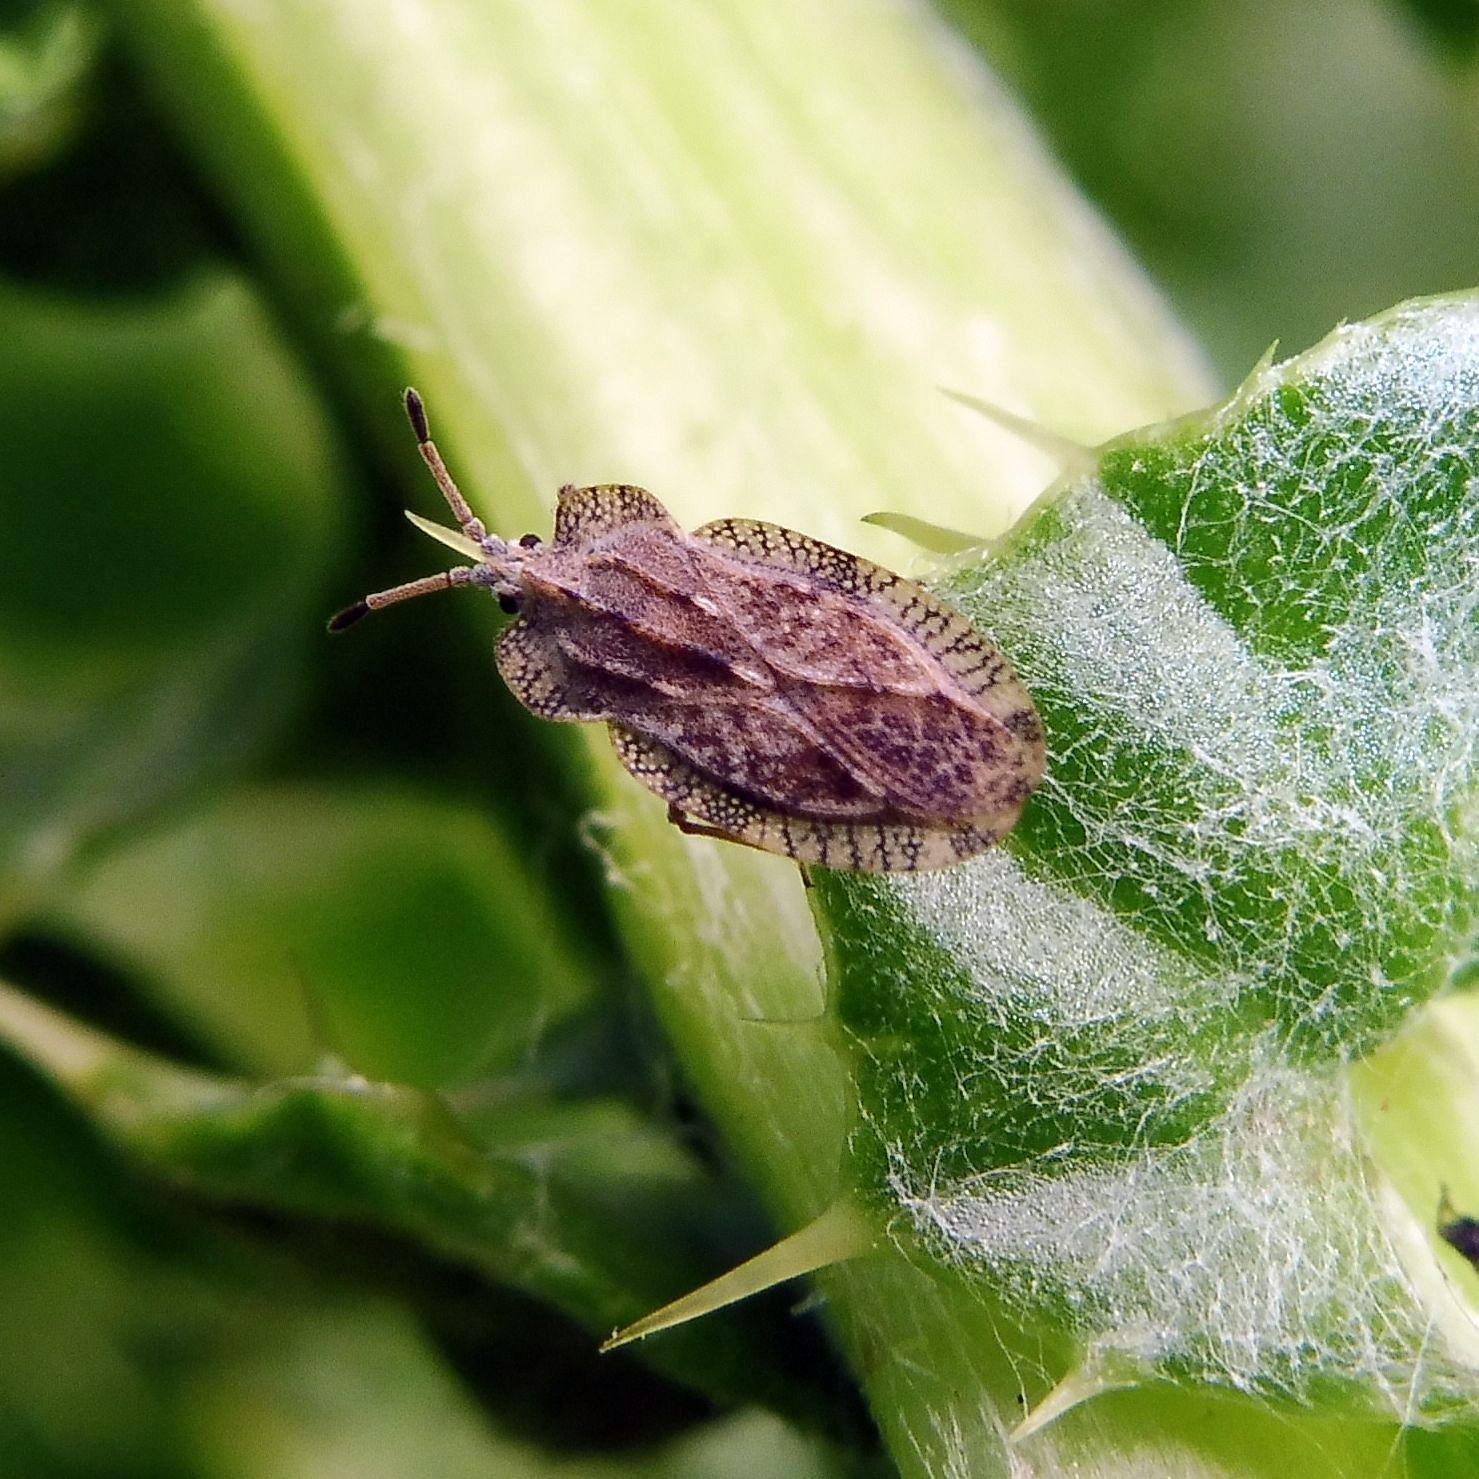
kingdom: Animalia
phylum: Arthropoda
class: Insecta
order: Hemiptera
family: Tingidae
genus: Tingis
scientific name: Tingis ampliata
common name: Creeping thistle lacebug
